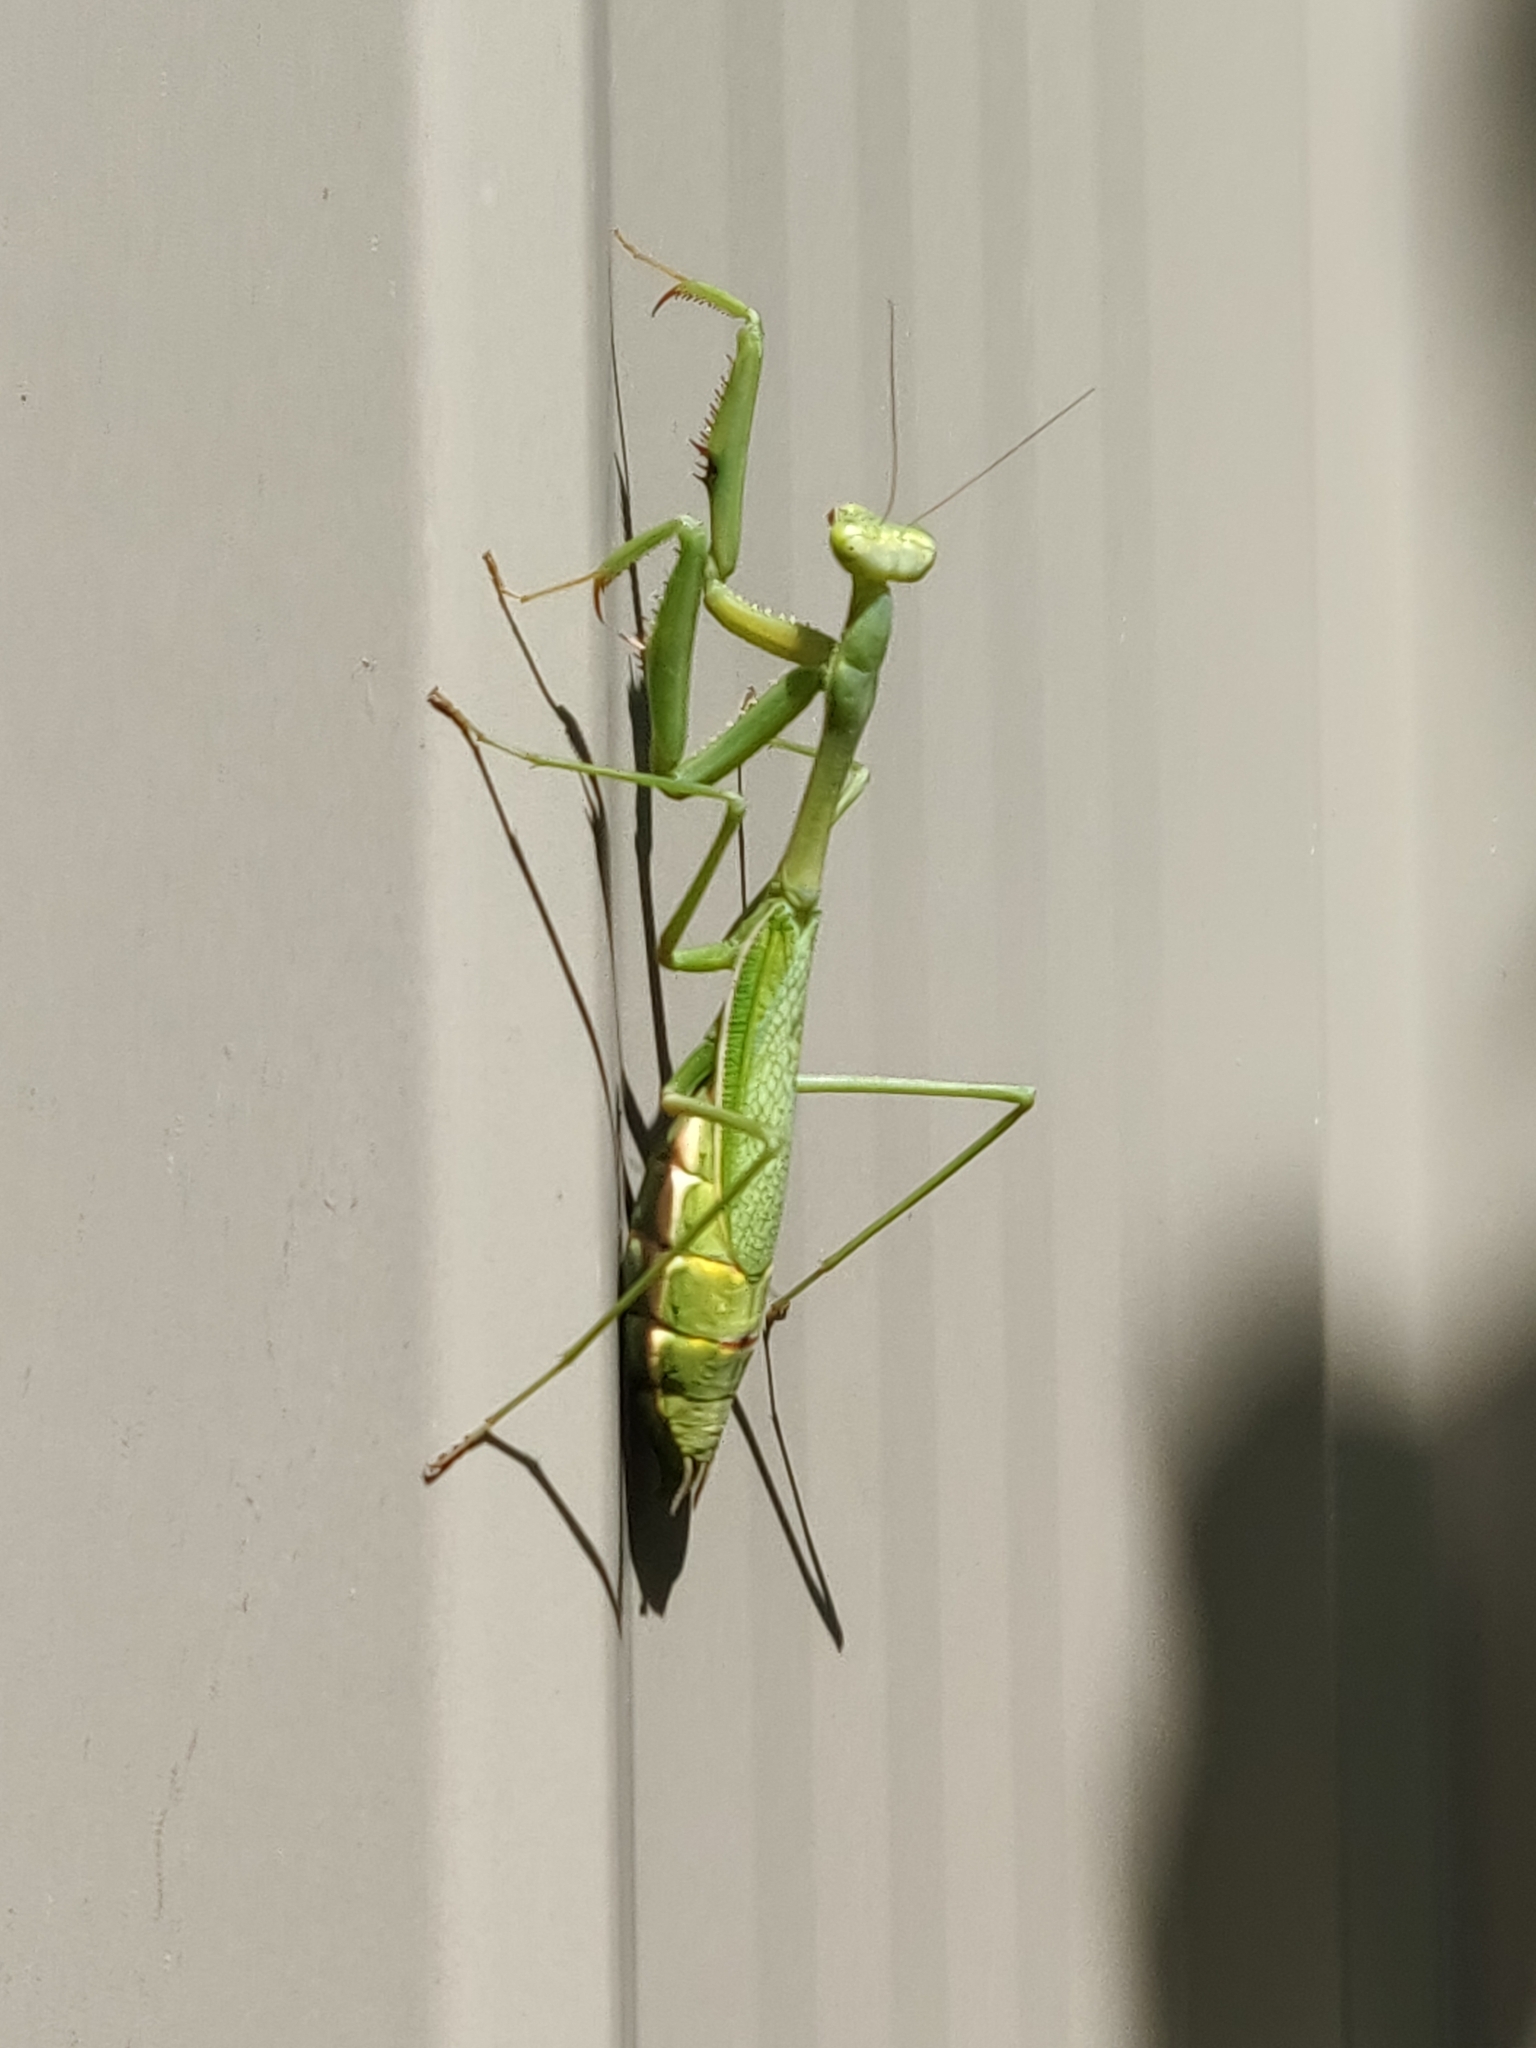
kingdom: Animalia
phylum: Arthropoda
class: Insecta
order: Mantodea
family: Mantidae
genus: Pseudomantis
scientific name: Pseudomantis albofimbriata
